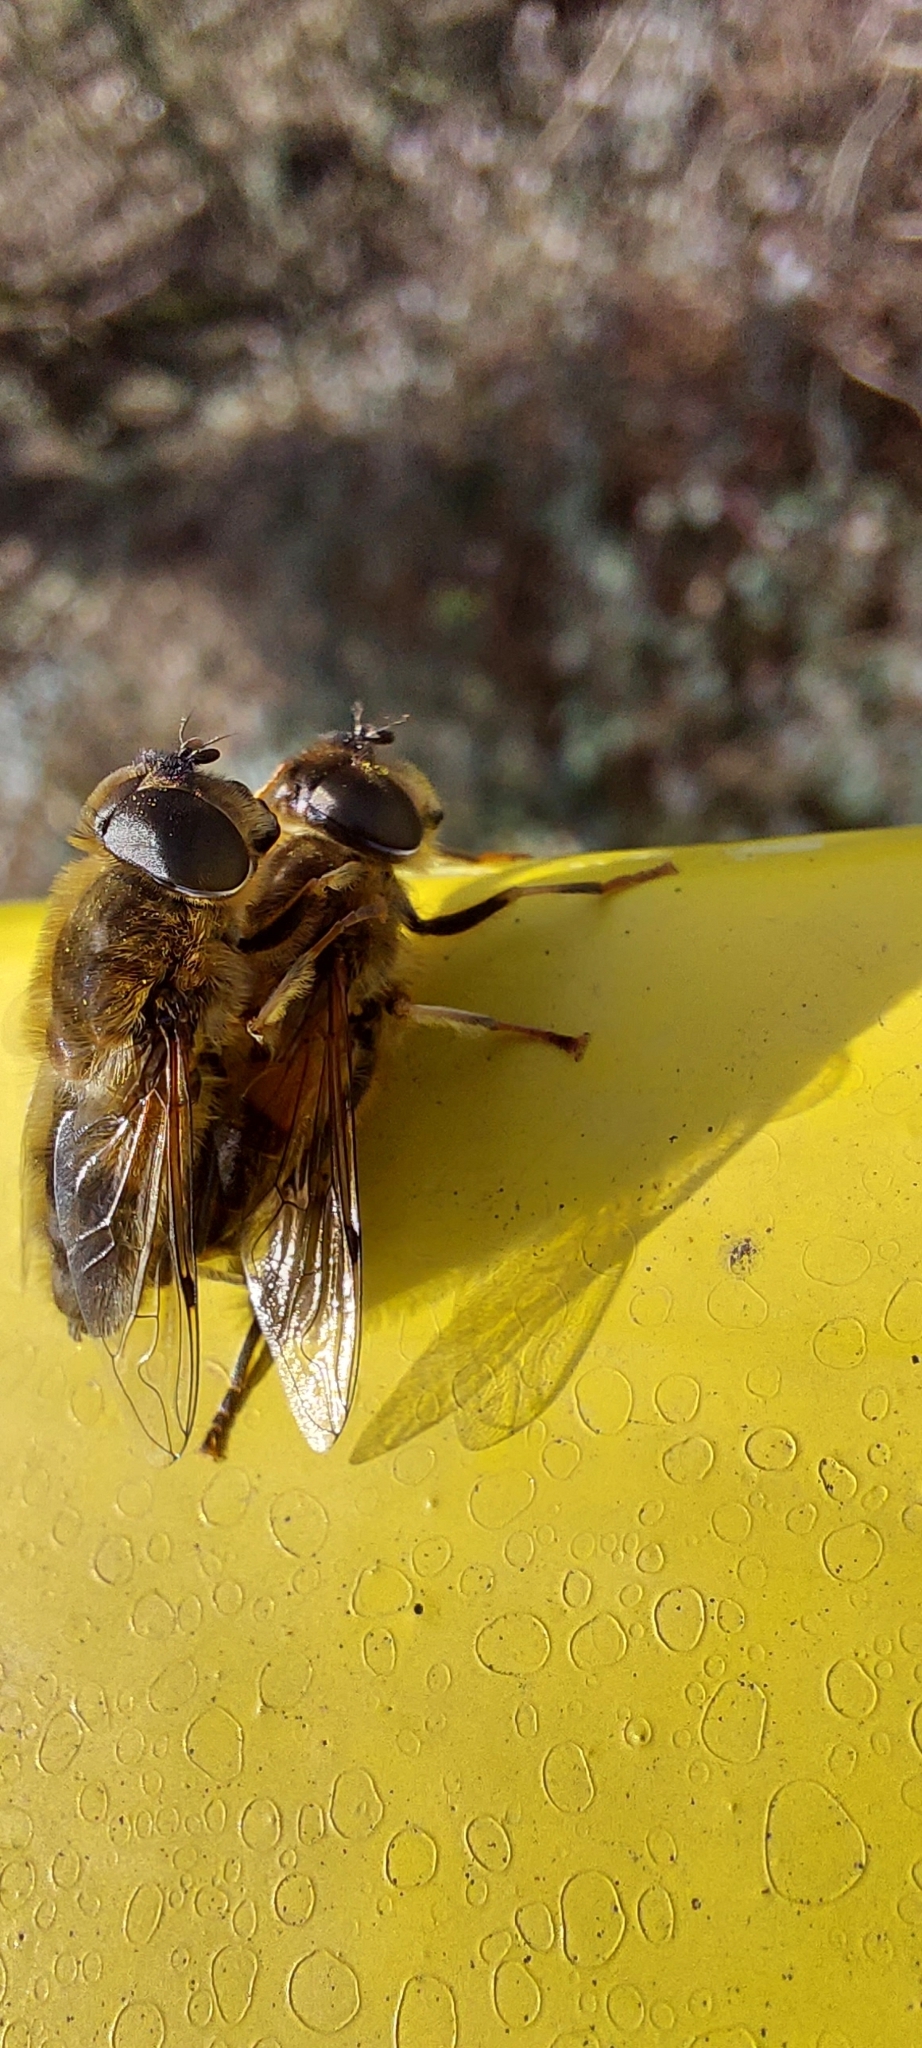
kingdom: Animalia
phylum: Arthropoda
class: Insecta
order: Diptera
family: Syrphidae
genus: Eristalis
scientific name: Eristalis pertinax
